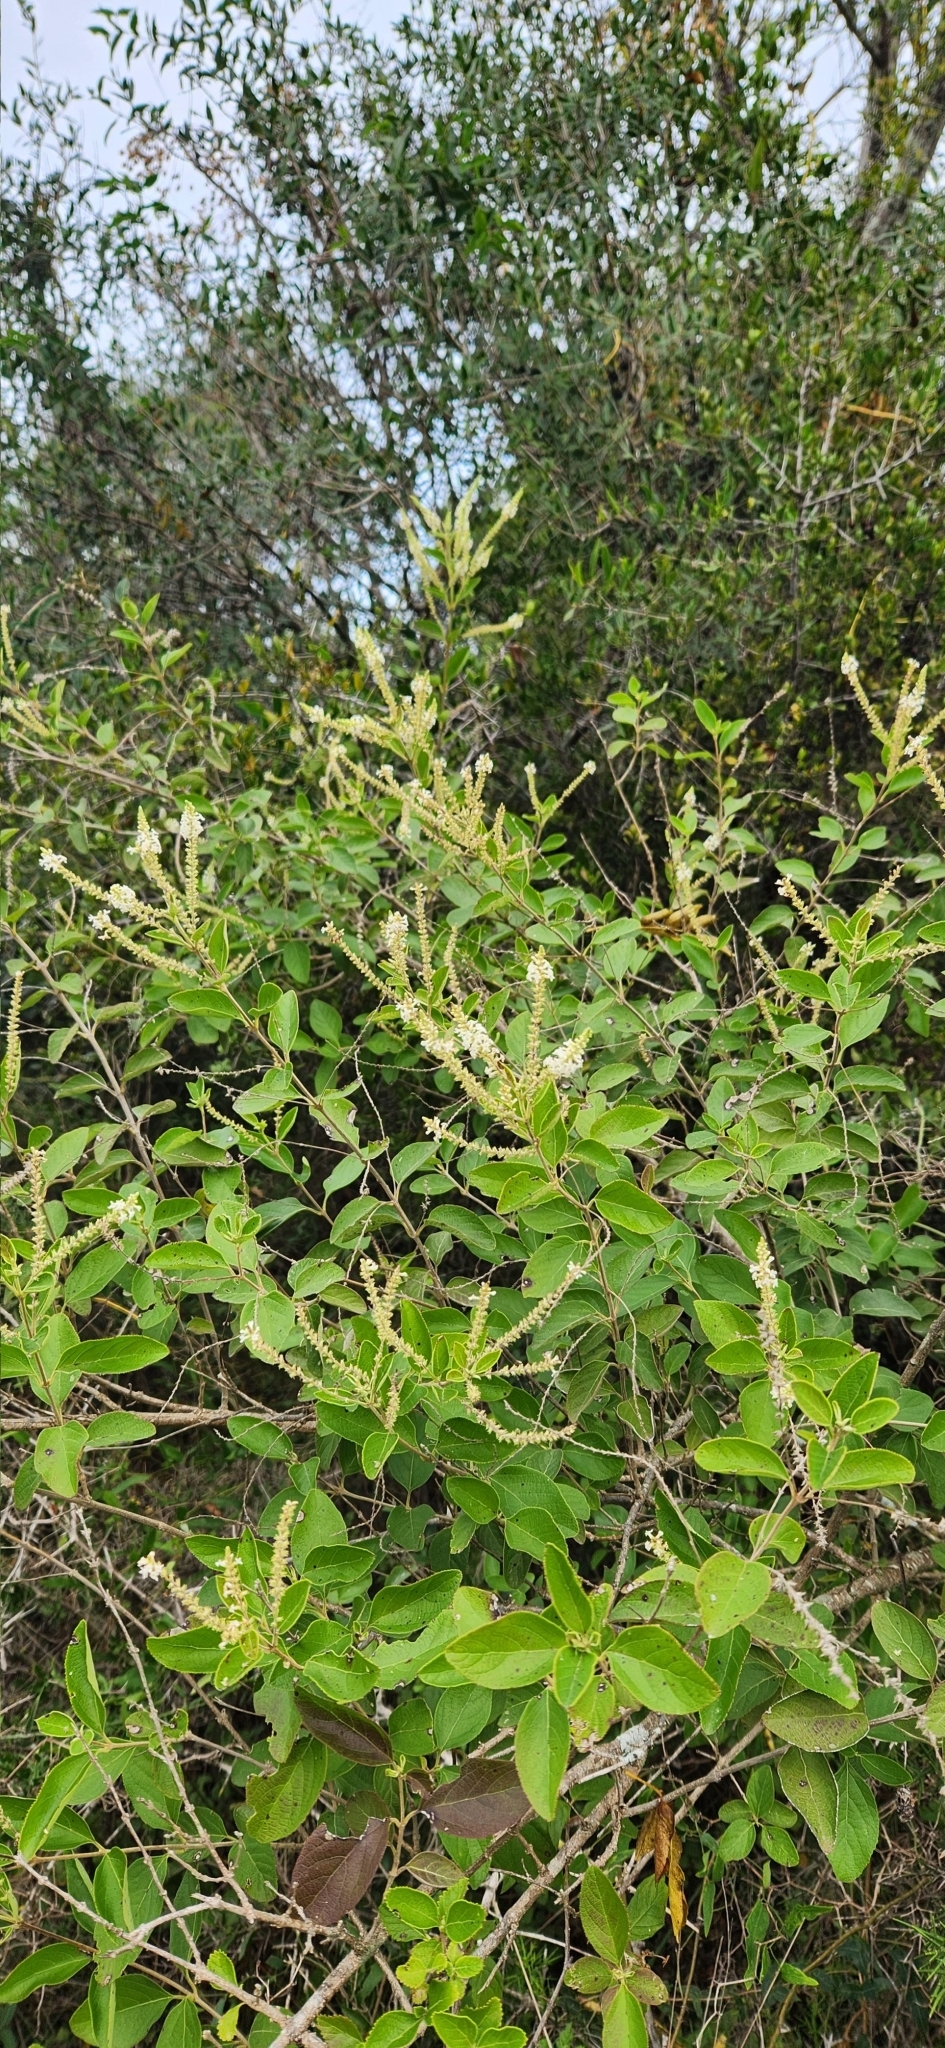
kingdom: Plantae
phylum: Tracheophyta
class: Magnoliopsida
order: Lamiales
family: Verbenaceae
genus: Aloysia
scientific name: Aloysia virgata
